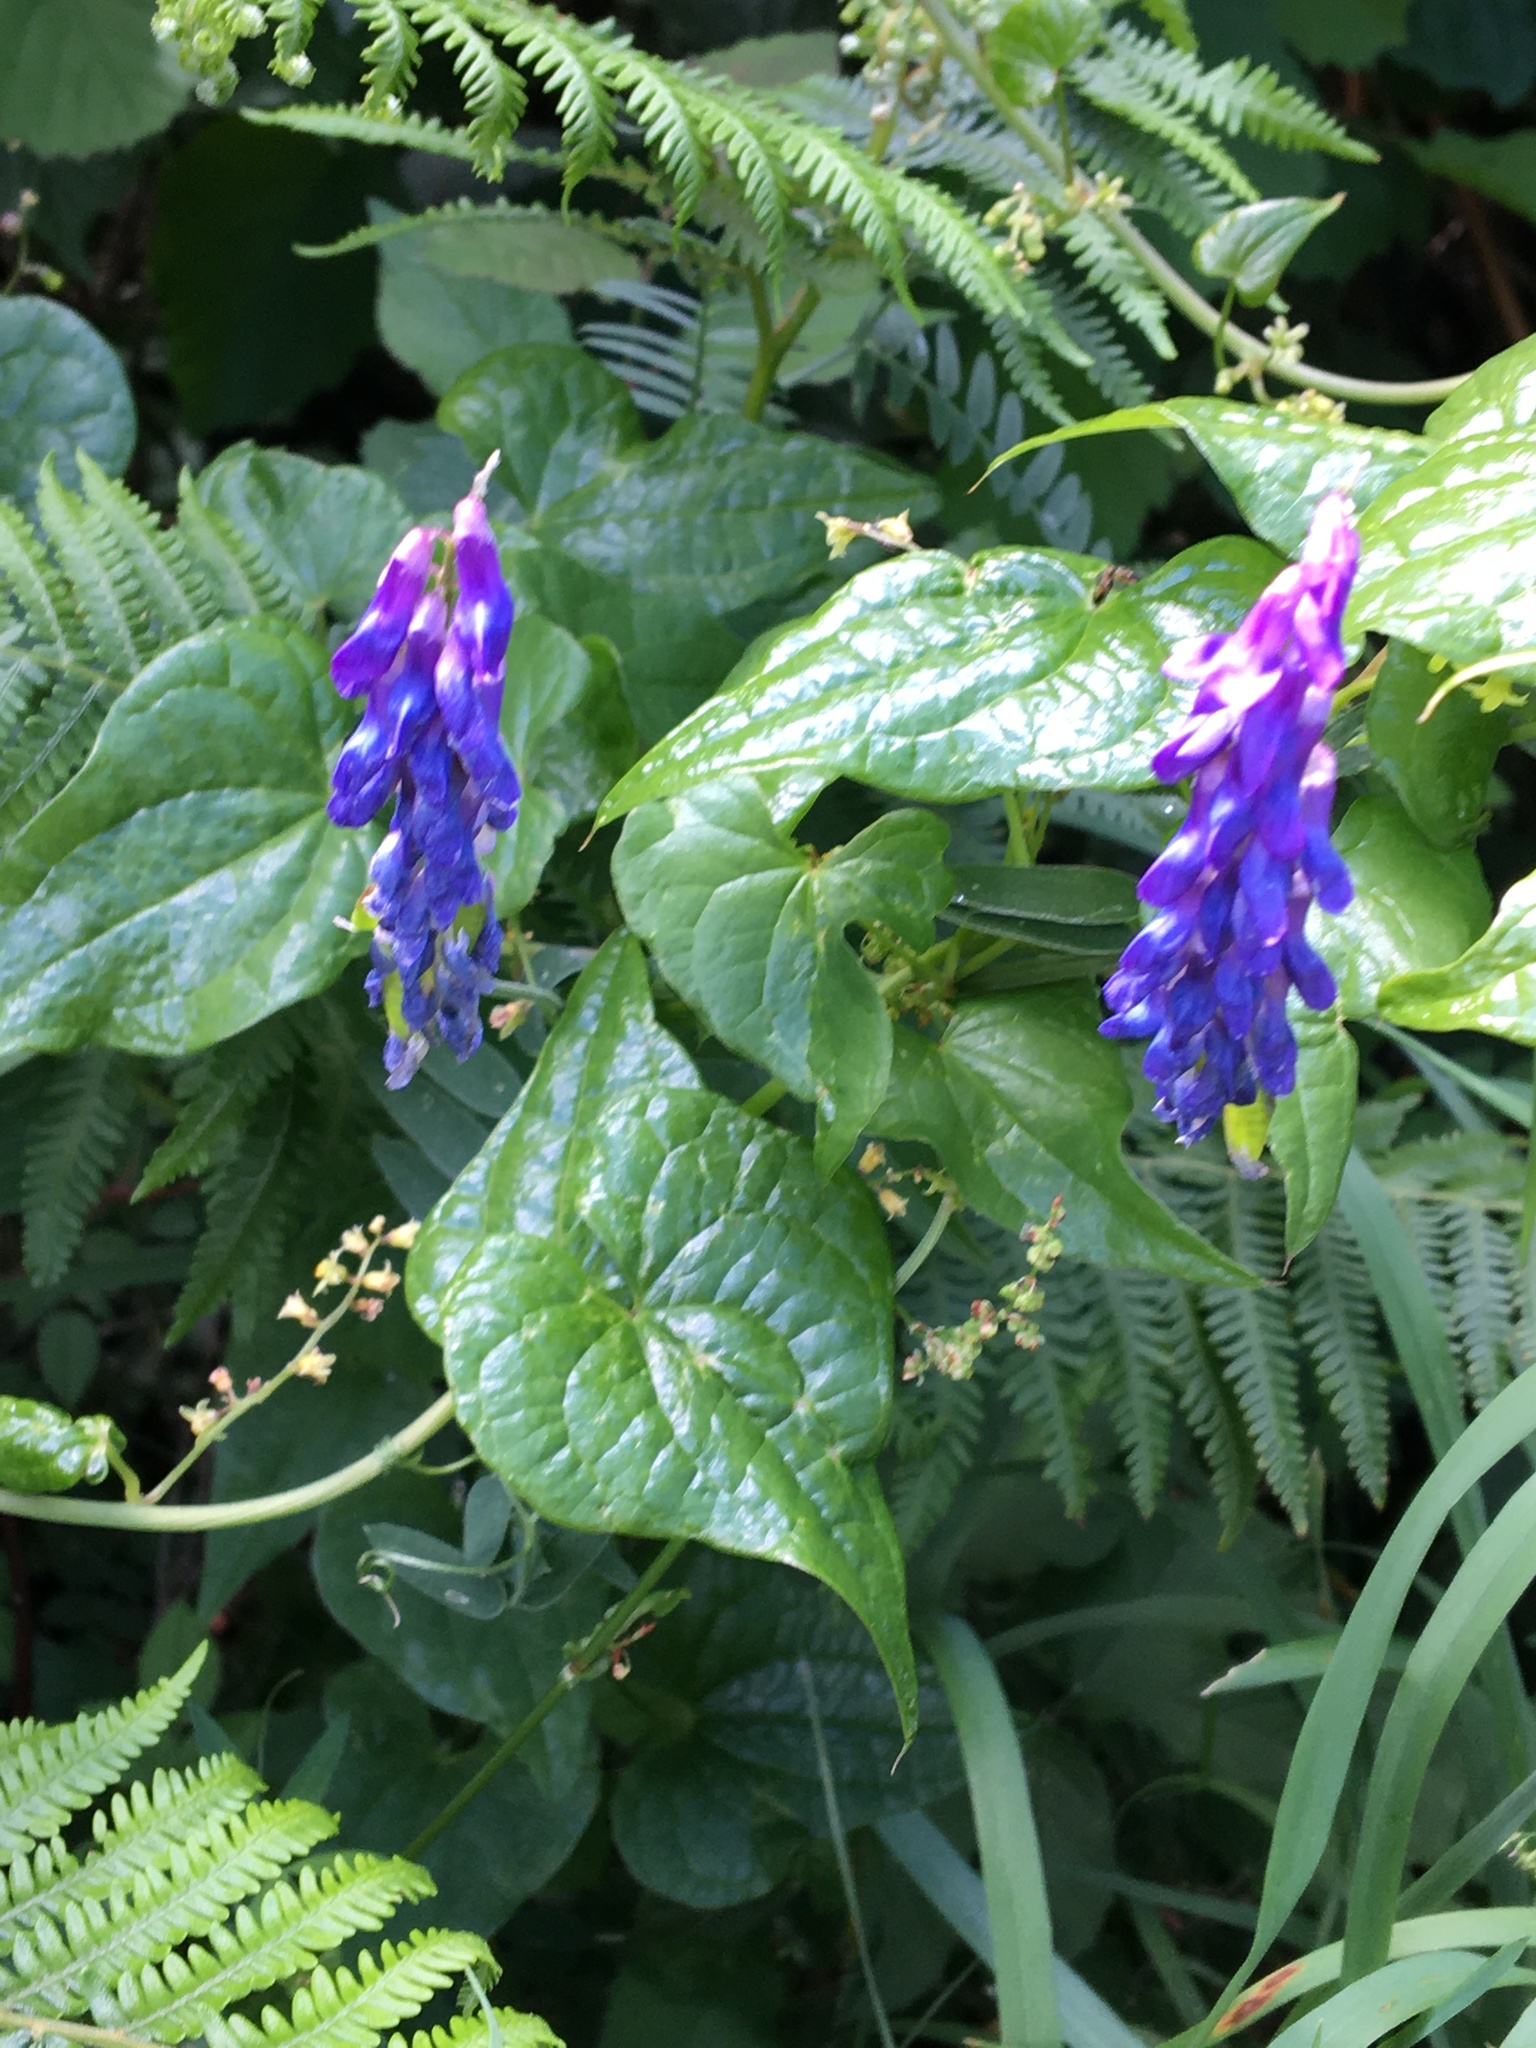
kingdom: Plantae
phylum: Tracheophyta
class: Magnoliopsida
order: Fabales
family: Fabaceae
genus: Vicia
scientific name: Vicia cracca
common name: Bird vetch
